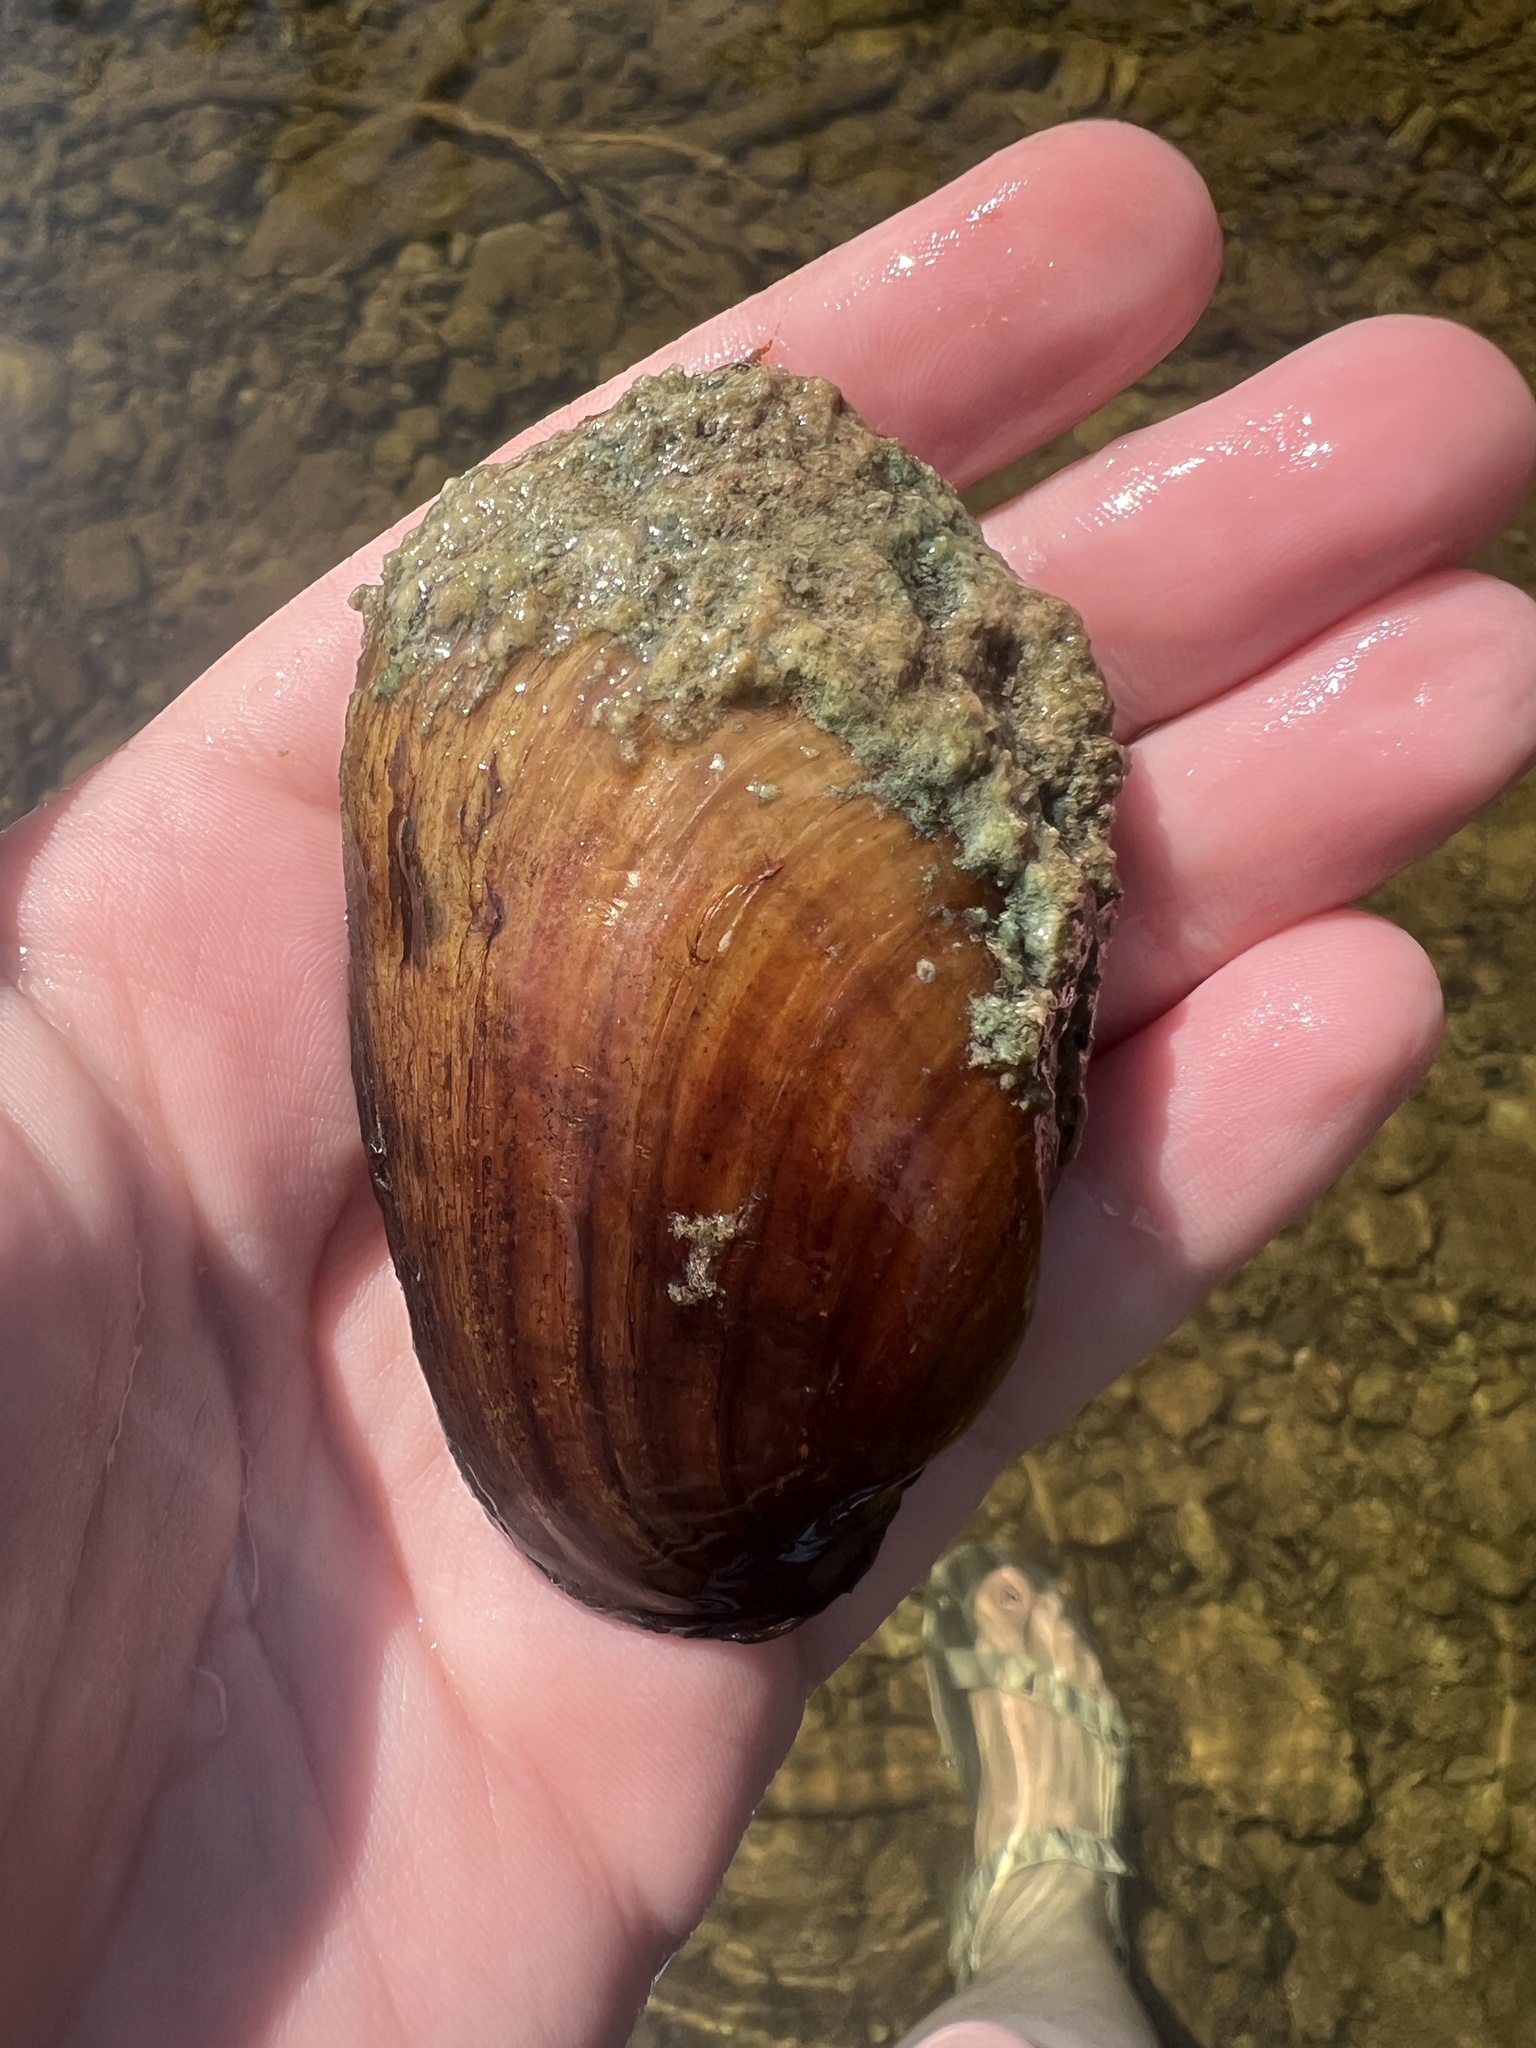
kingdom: Animalia
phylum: Mollusca
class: Bivalvia
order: Unionida
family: Unionidae
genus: Lampsilis
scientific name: Lampsilis siliquoidea
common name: Fatmucket
